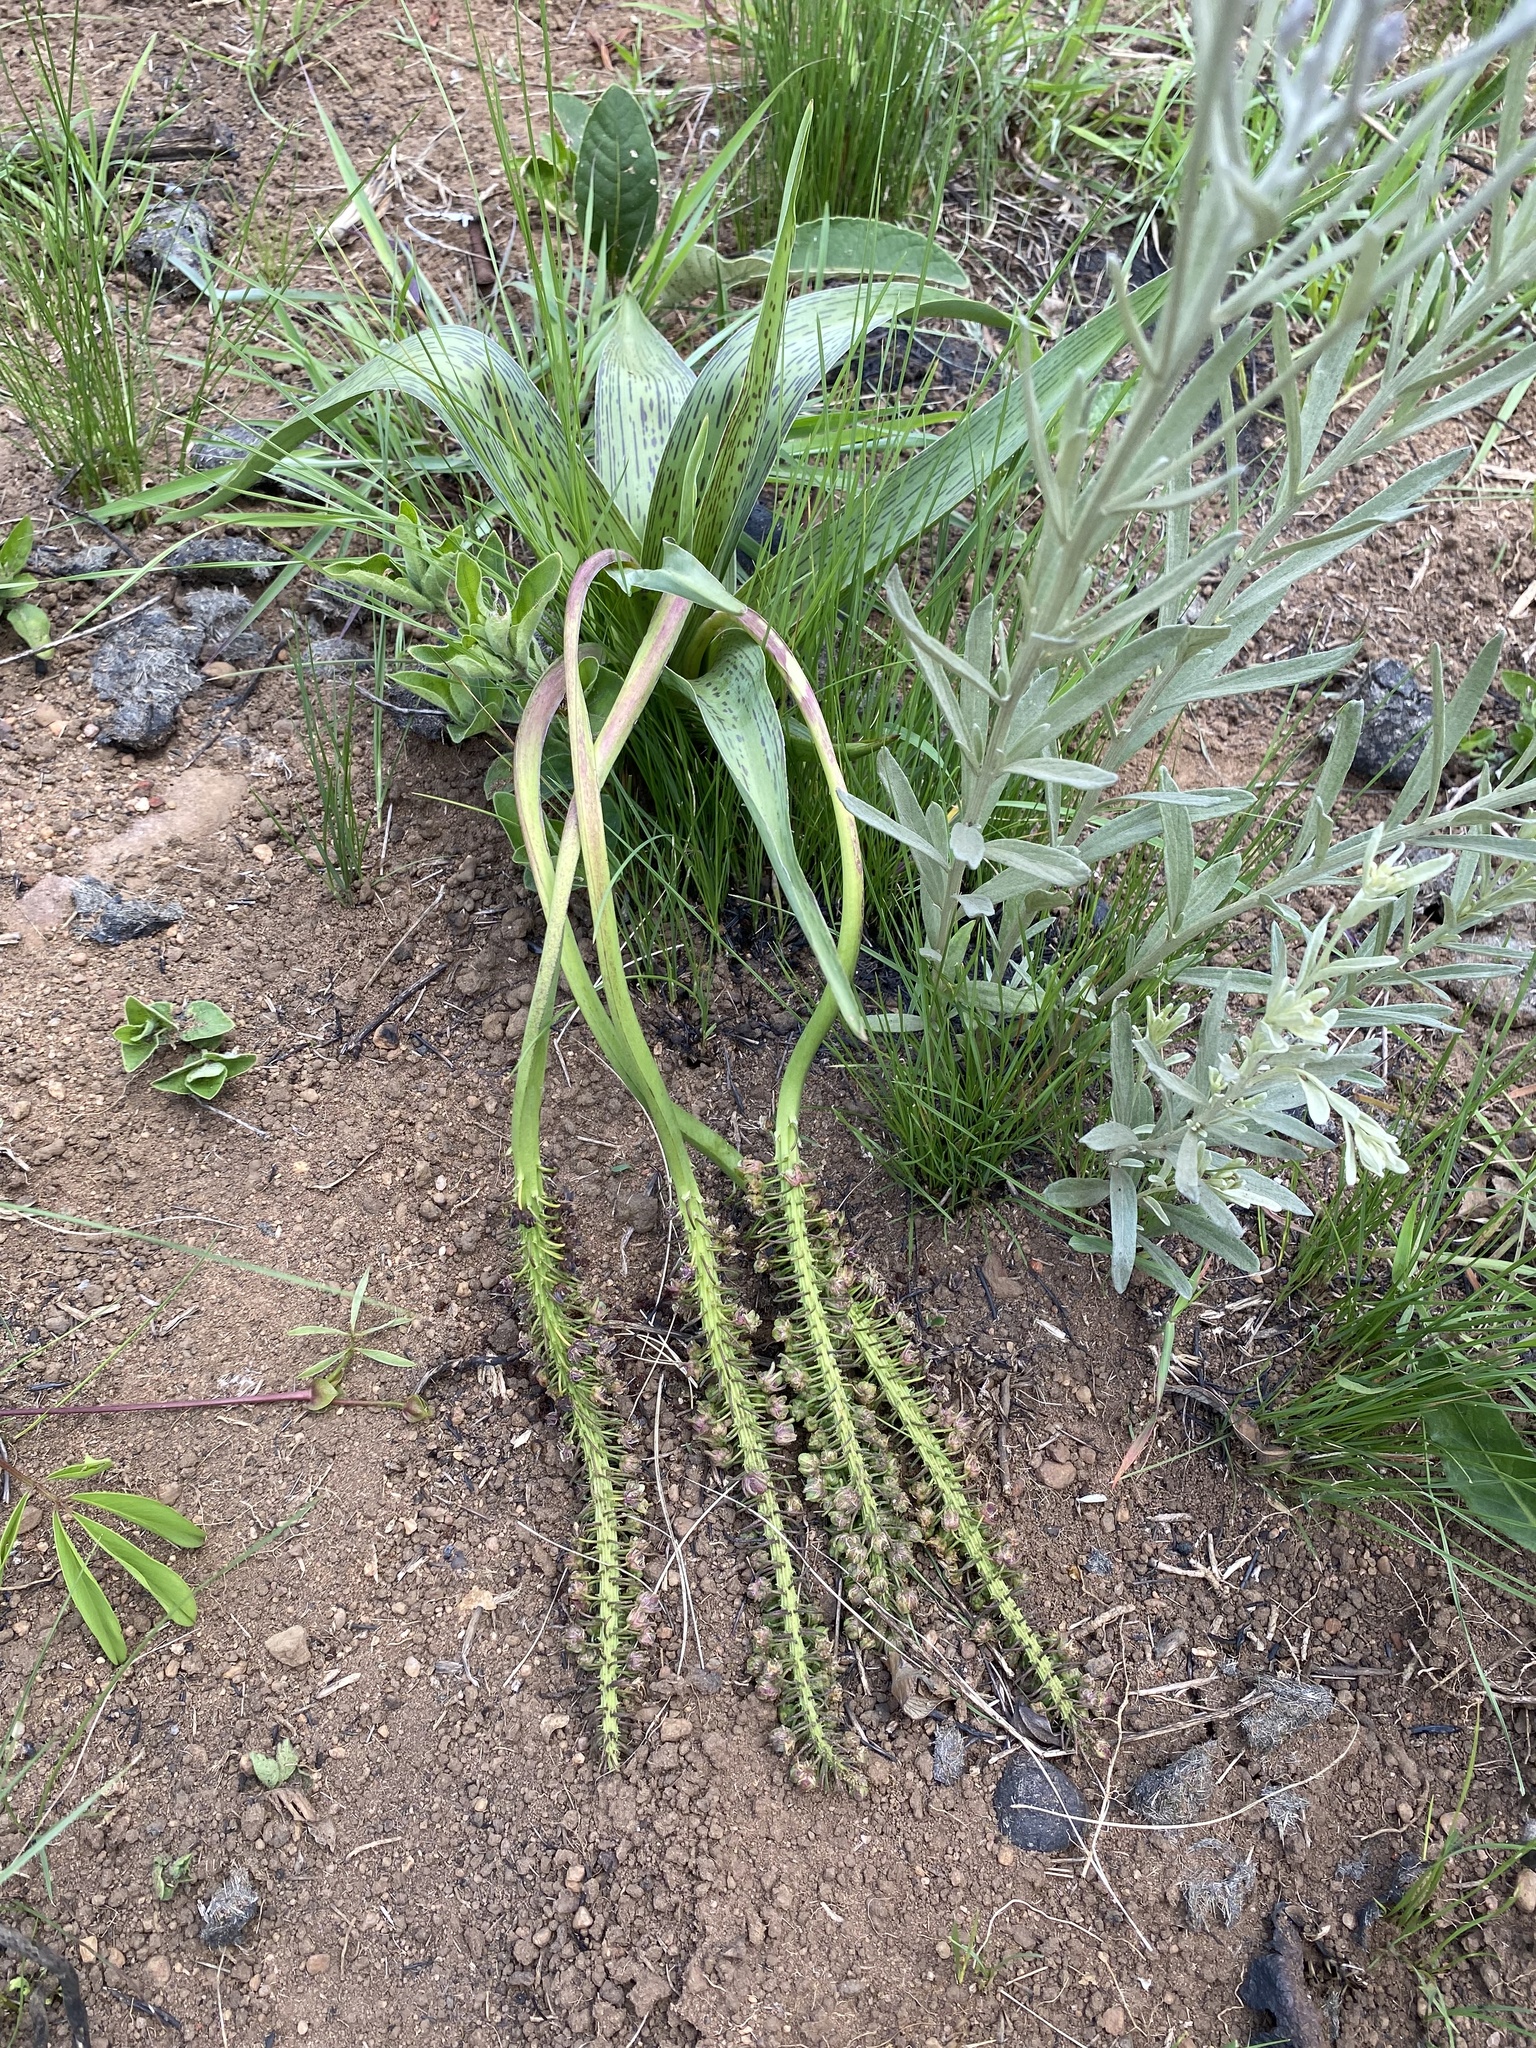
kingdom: Plantae
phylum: Tracheophyta
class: Liliopsida
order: Asparagales
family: Asparagaceae
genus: Ledebouria
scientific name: Ledebouria zebrina
